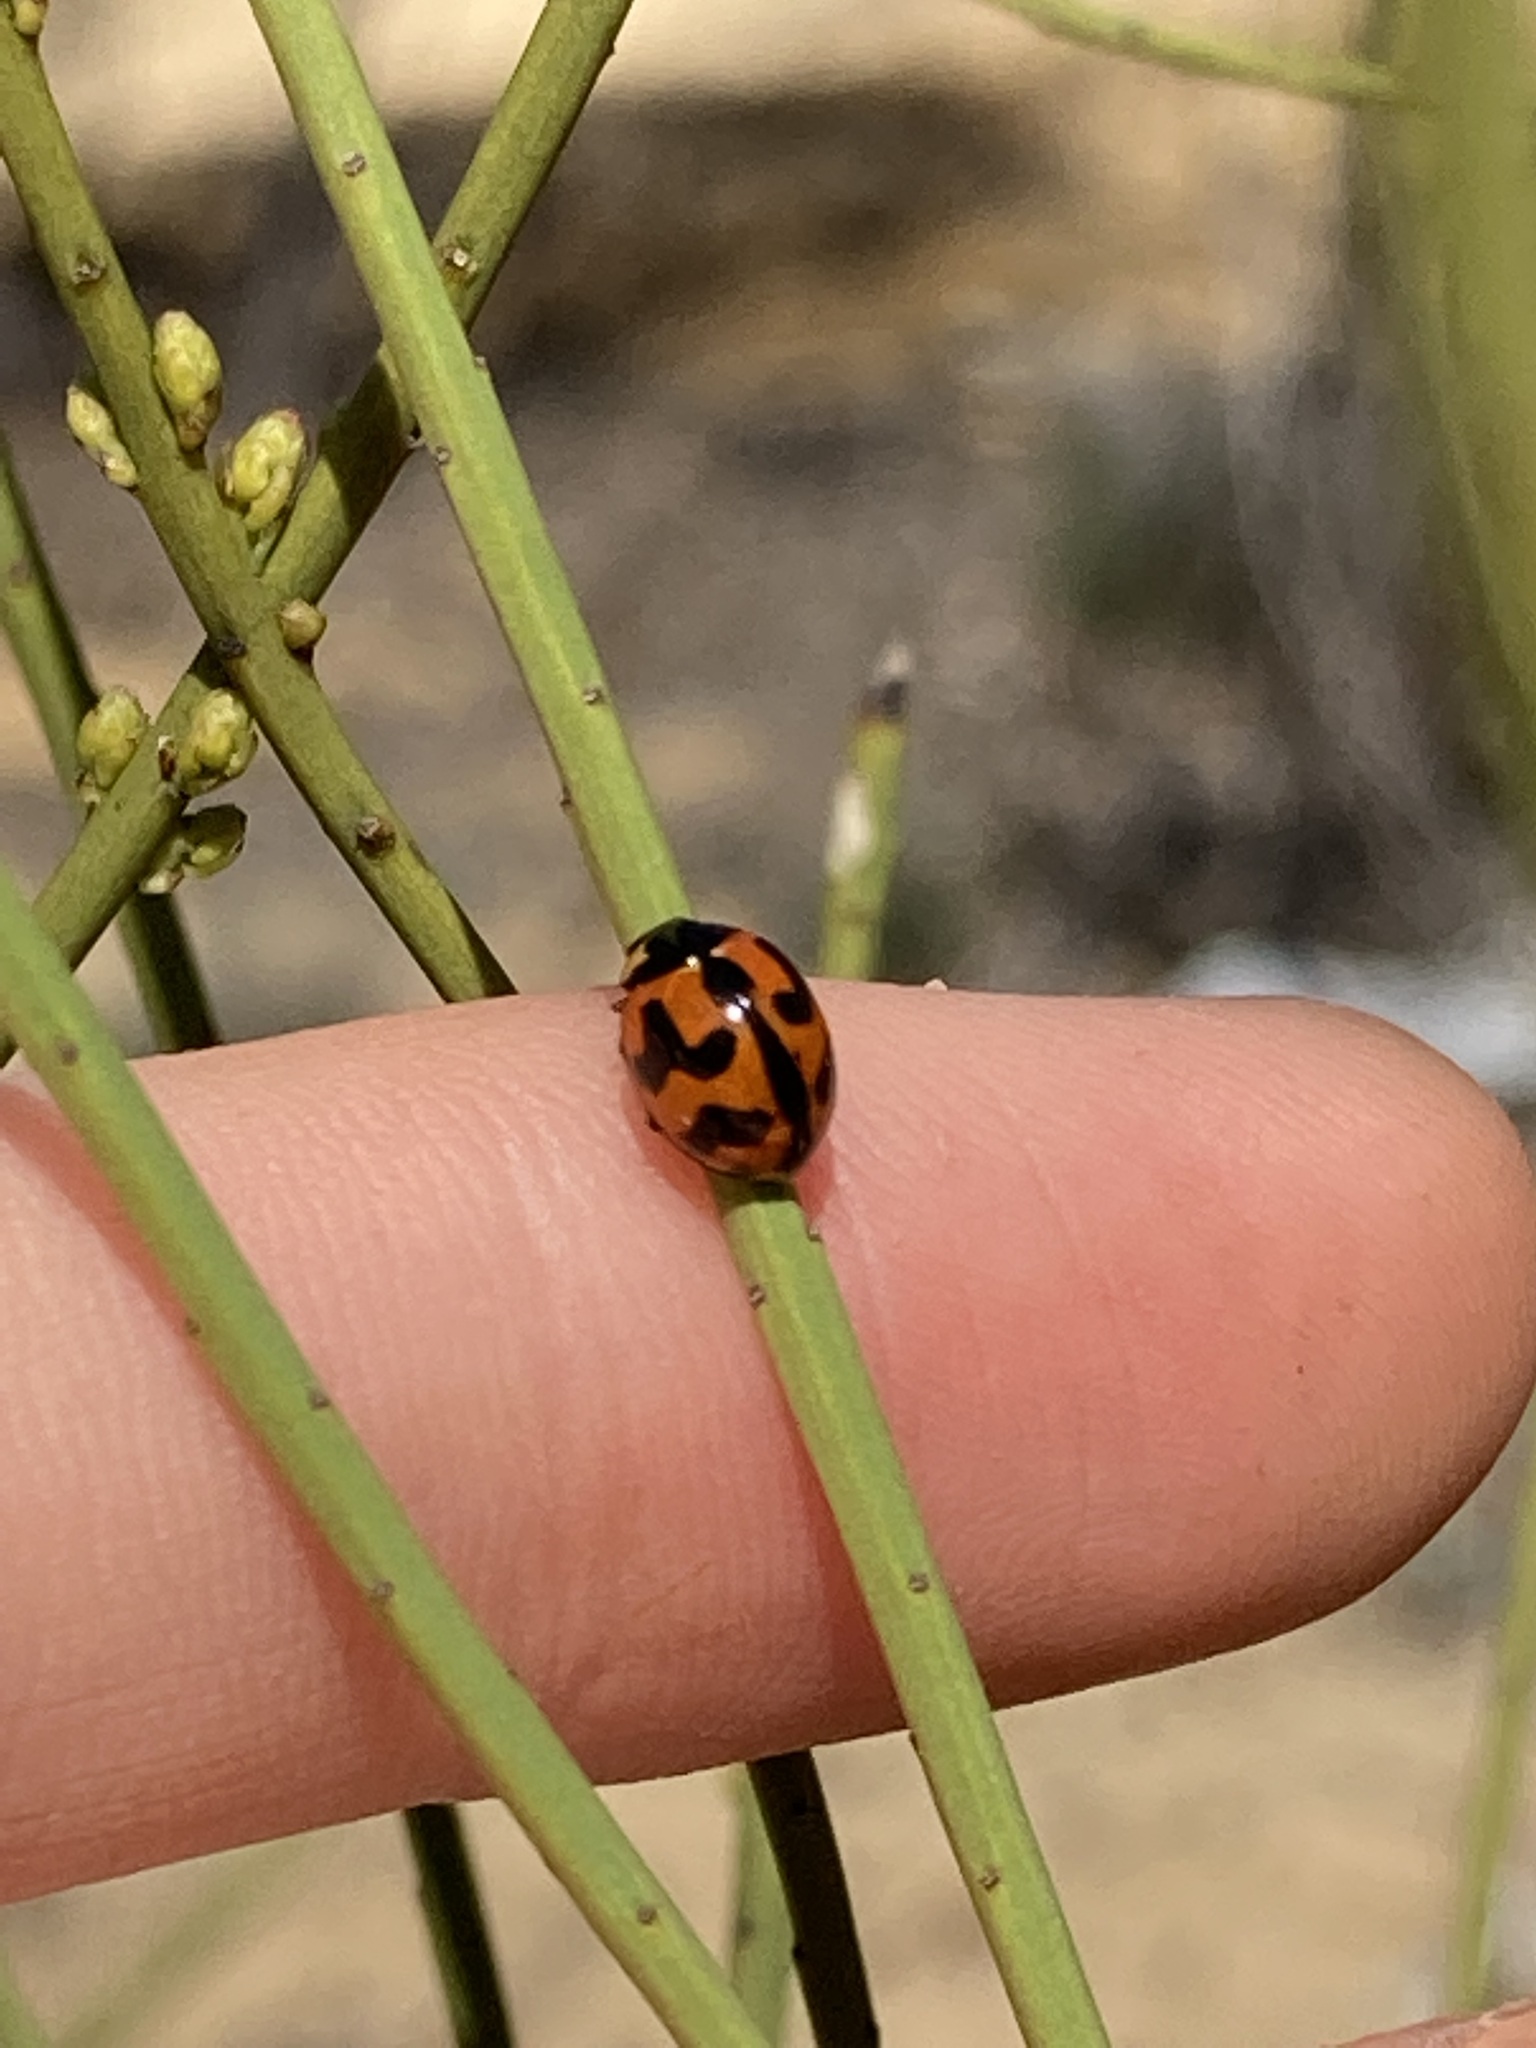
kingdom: Animalia
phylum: Arthropoda
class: Insecta
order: Coleoptera
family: Coccinellidae
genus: Coccinella
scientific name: Coccinella transversalis
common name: Transverse lady beetle
